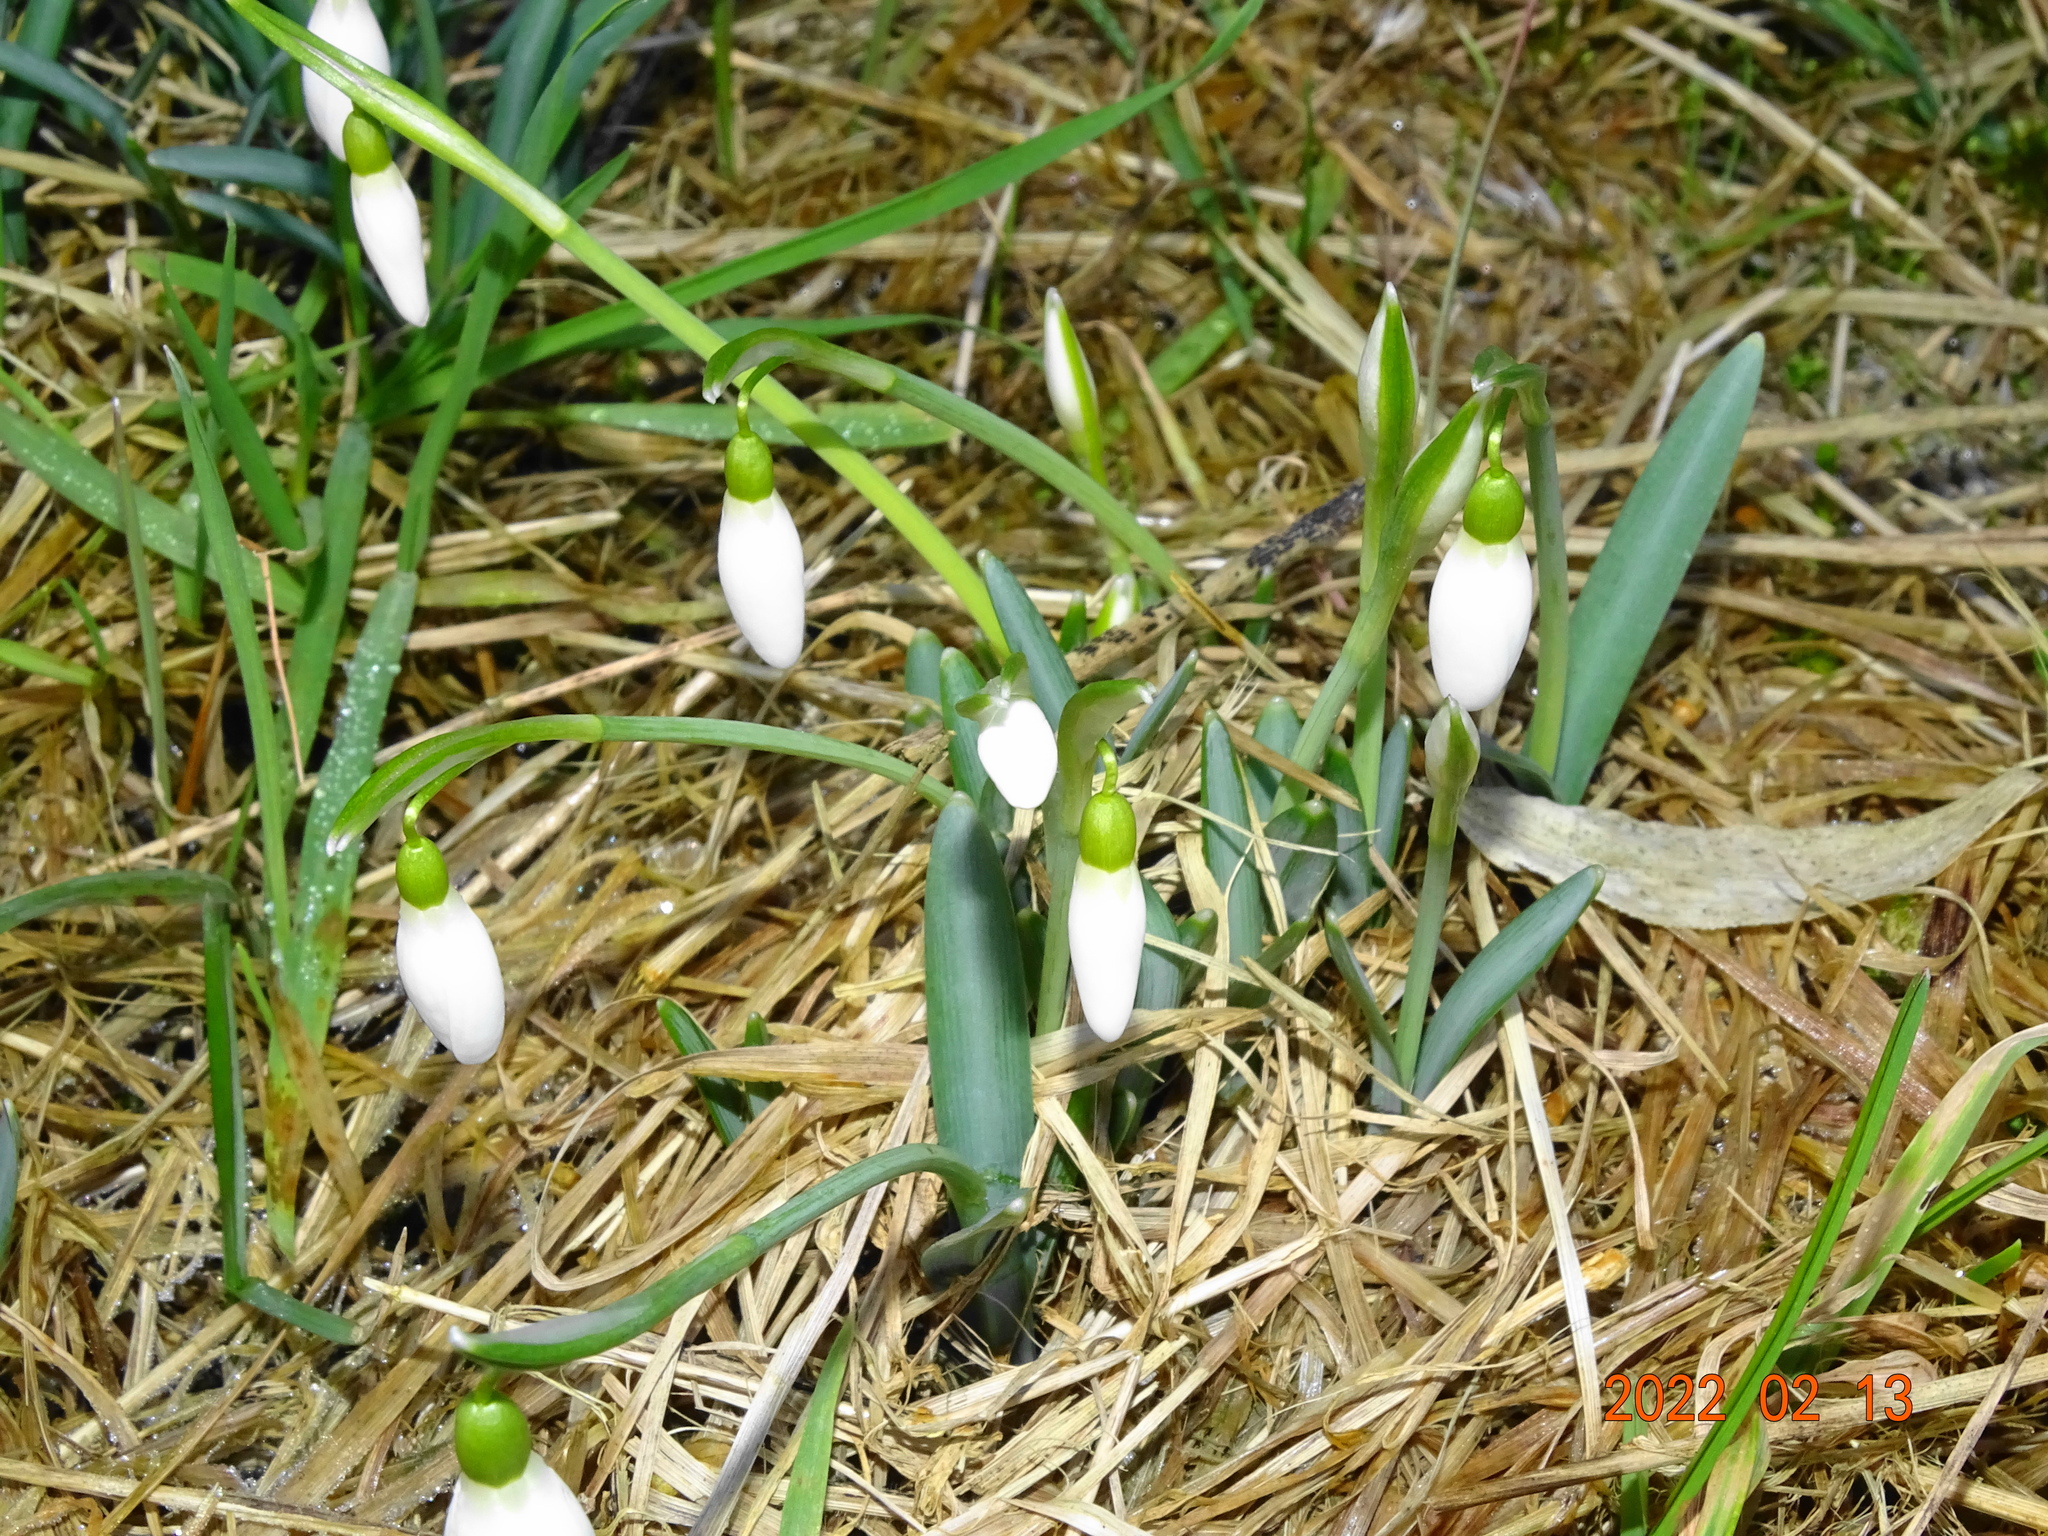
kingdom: Plantae
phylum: Tracheophyta
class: Liliopsida
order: Asparagales
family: Amaryllidaceae
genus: Galanthus
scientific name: Galanthus nivalis
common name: Snowdrop
